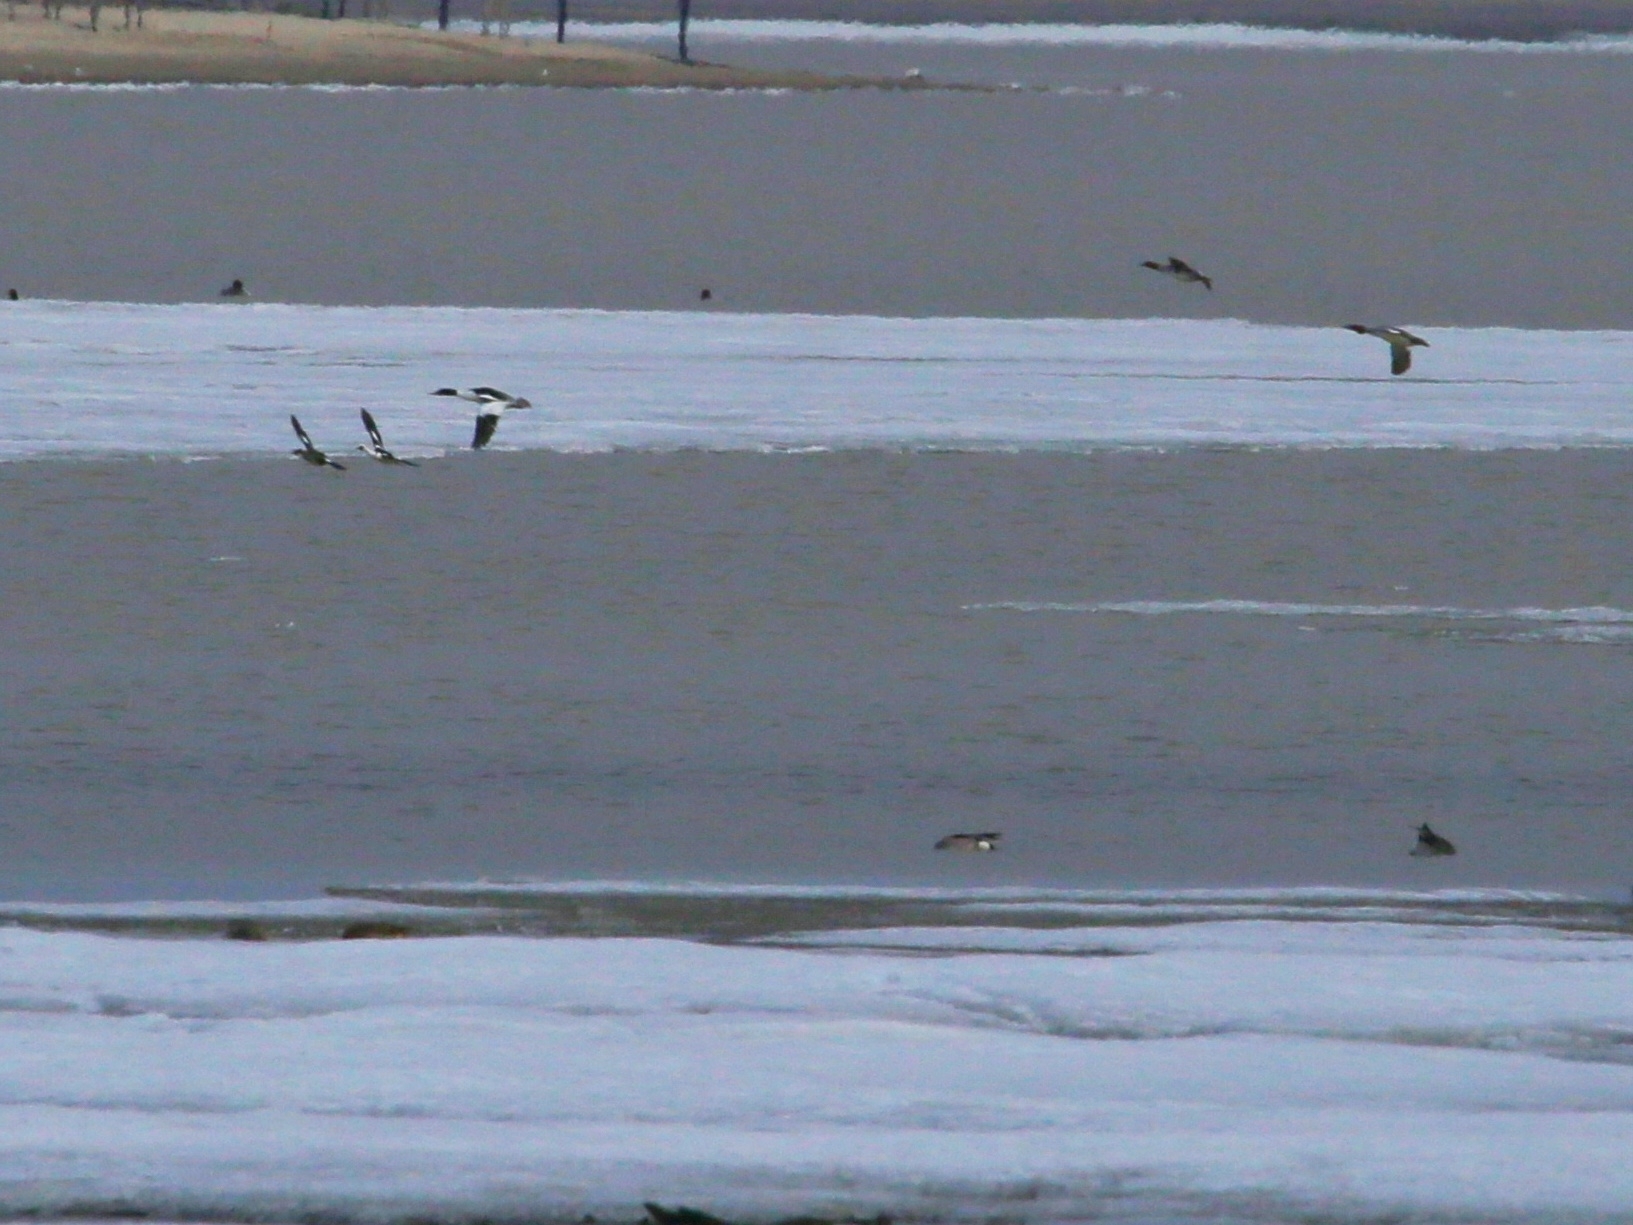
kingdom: Animalia
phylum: Chordata
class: Aves
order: Anseriformes
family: Anatidae
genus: Mergellus
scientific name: Mergellus albellus
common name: Smew
